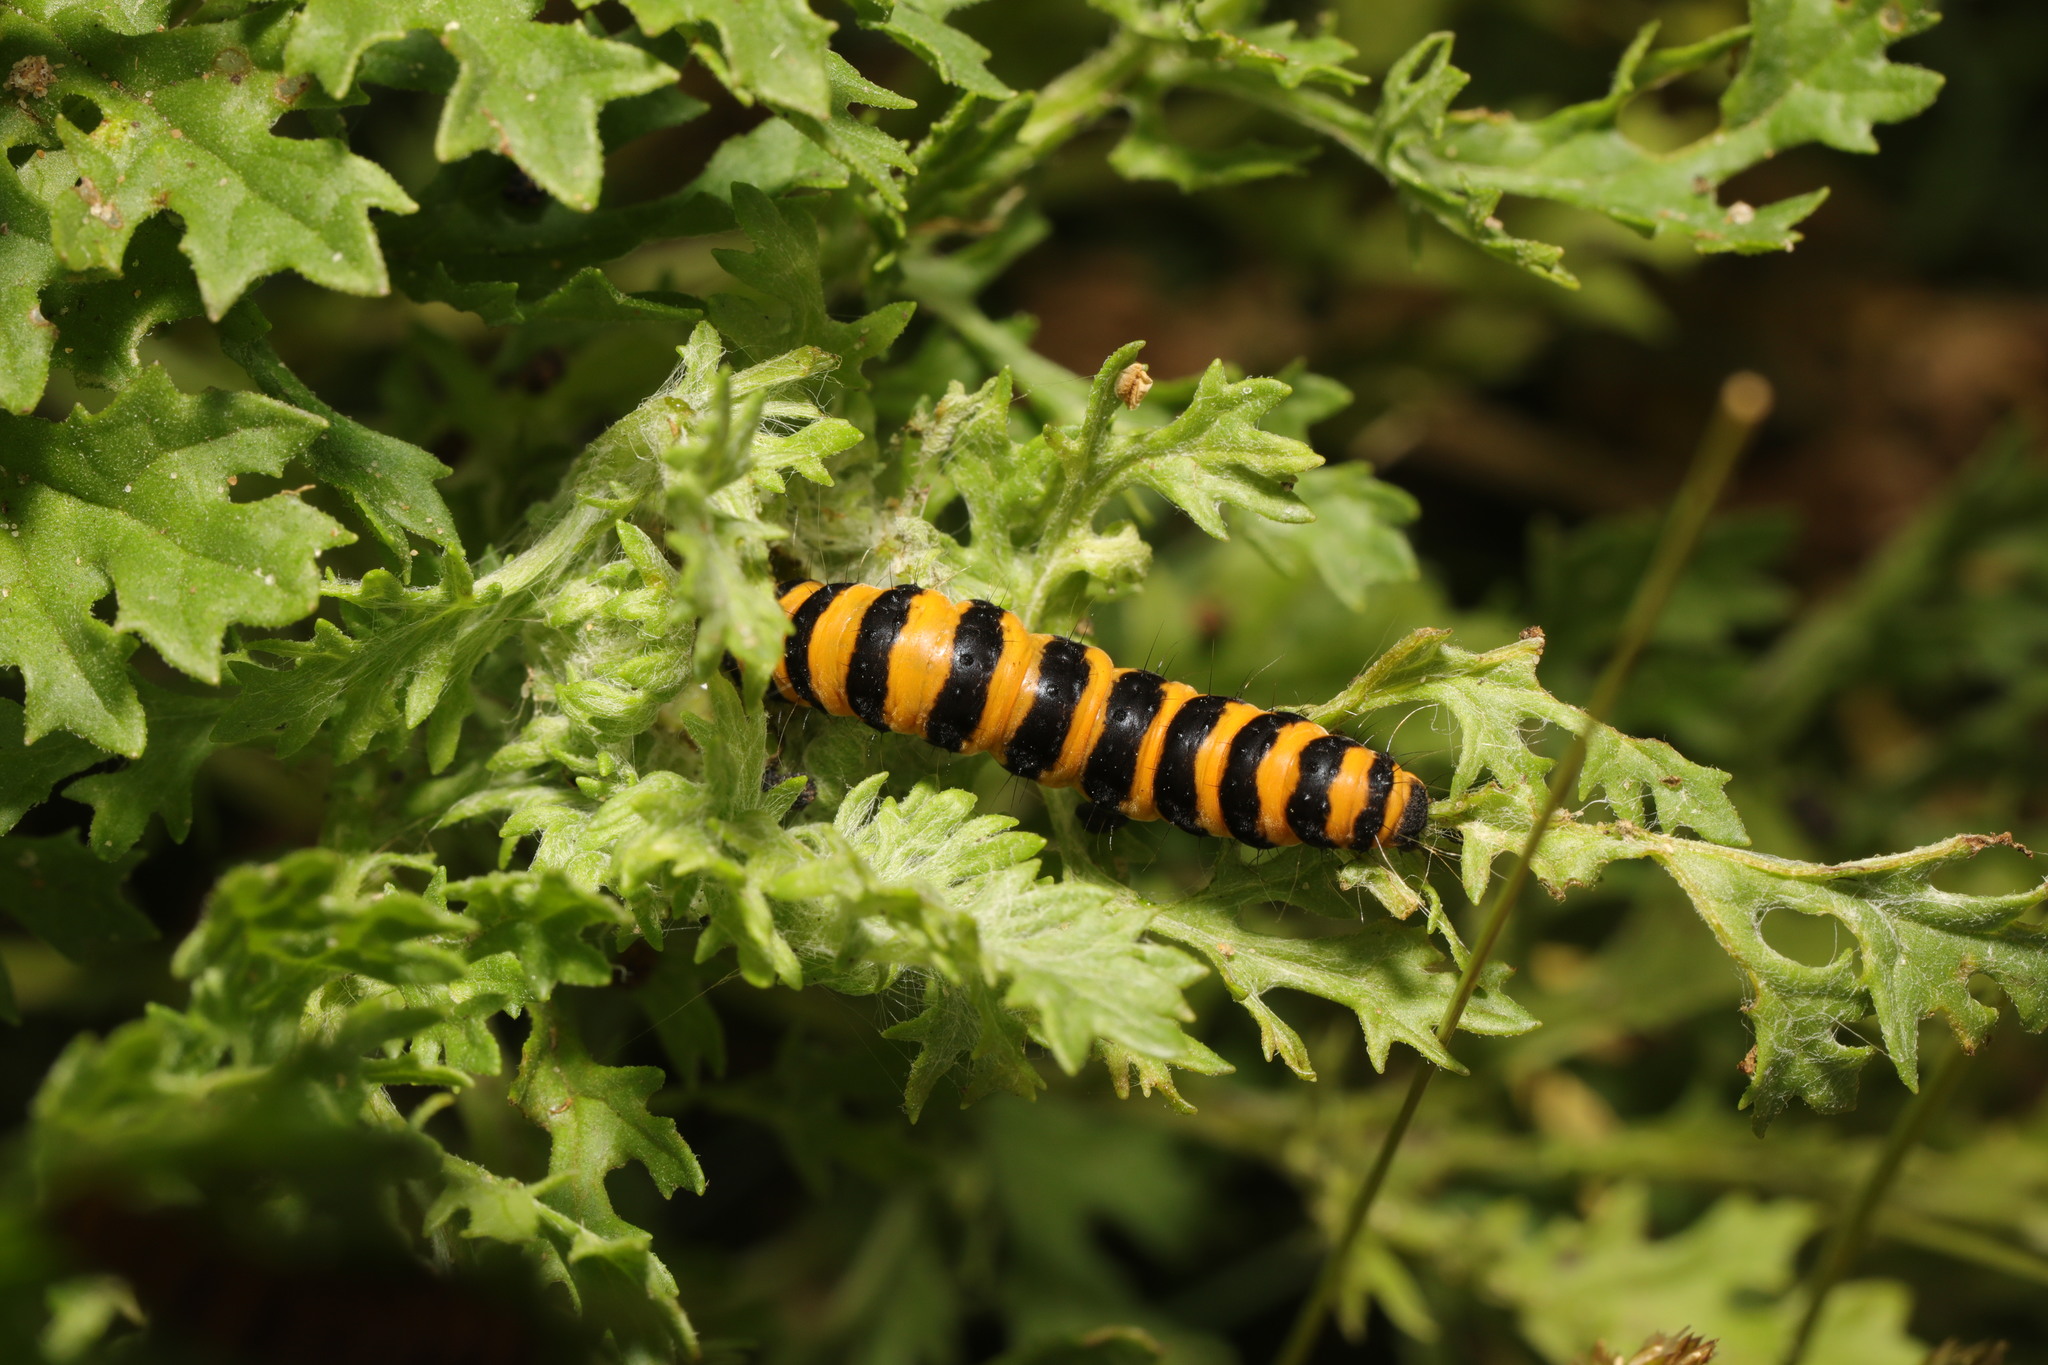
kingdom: Animalia
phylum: Arthropoda
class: Insecta
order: Lepidoptera
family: Erebidae
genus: Tyria
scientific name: Tyria jacobaeae
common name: Cinnabar
